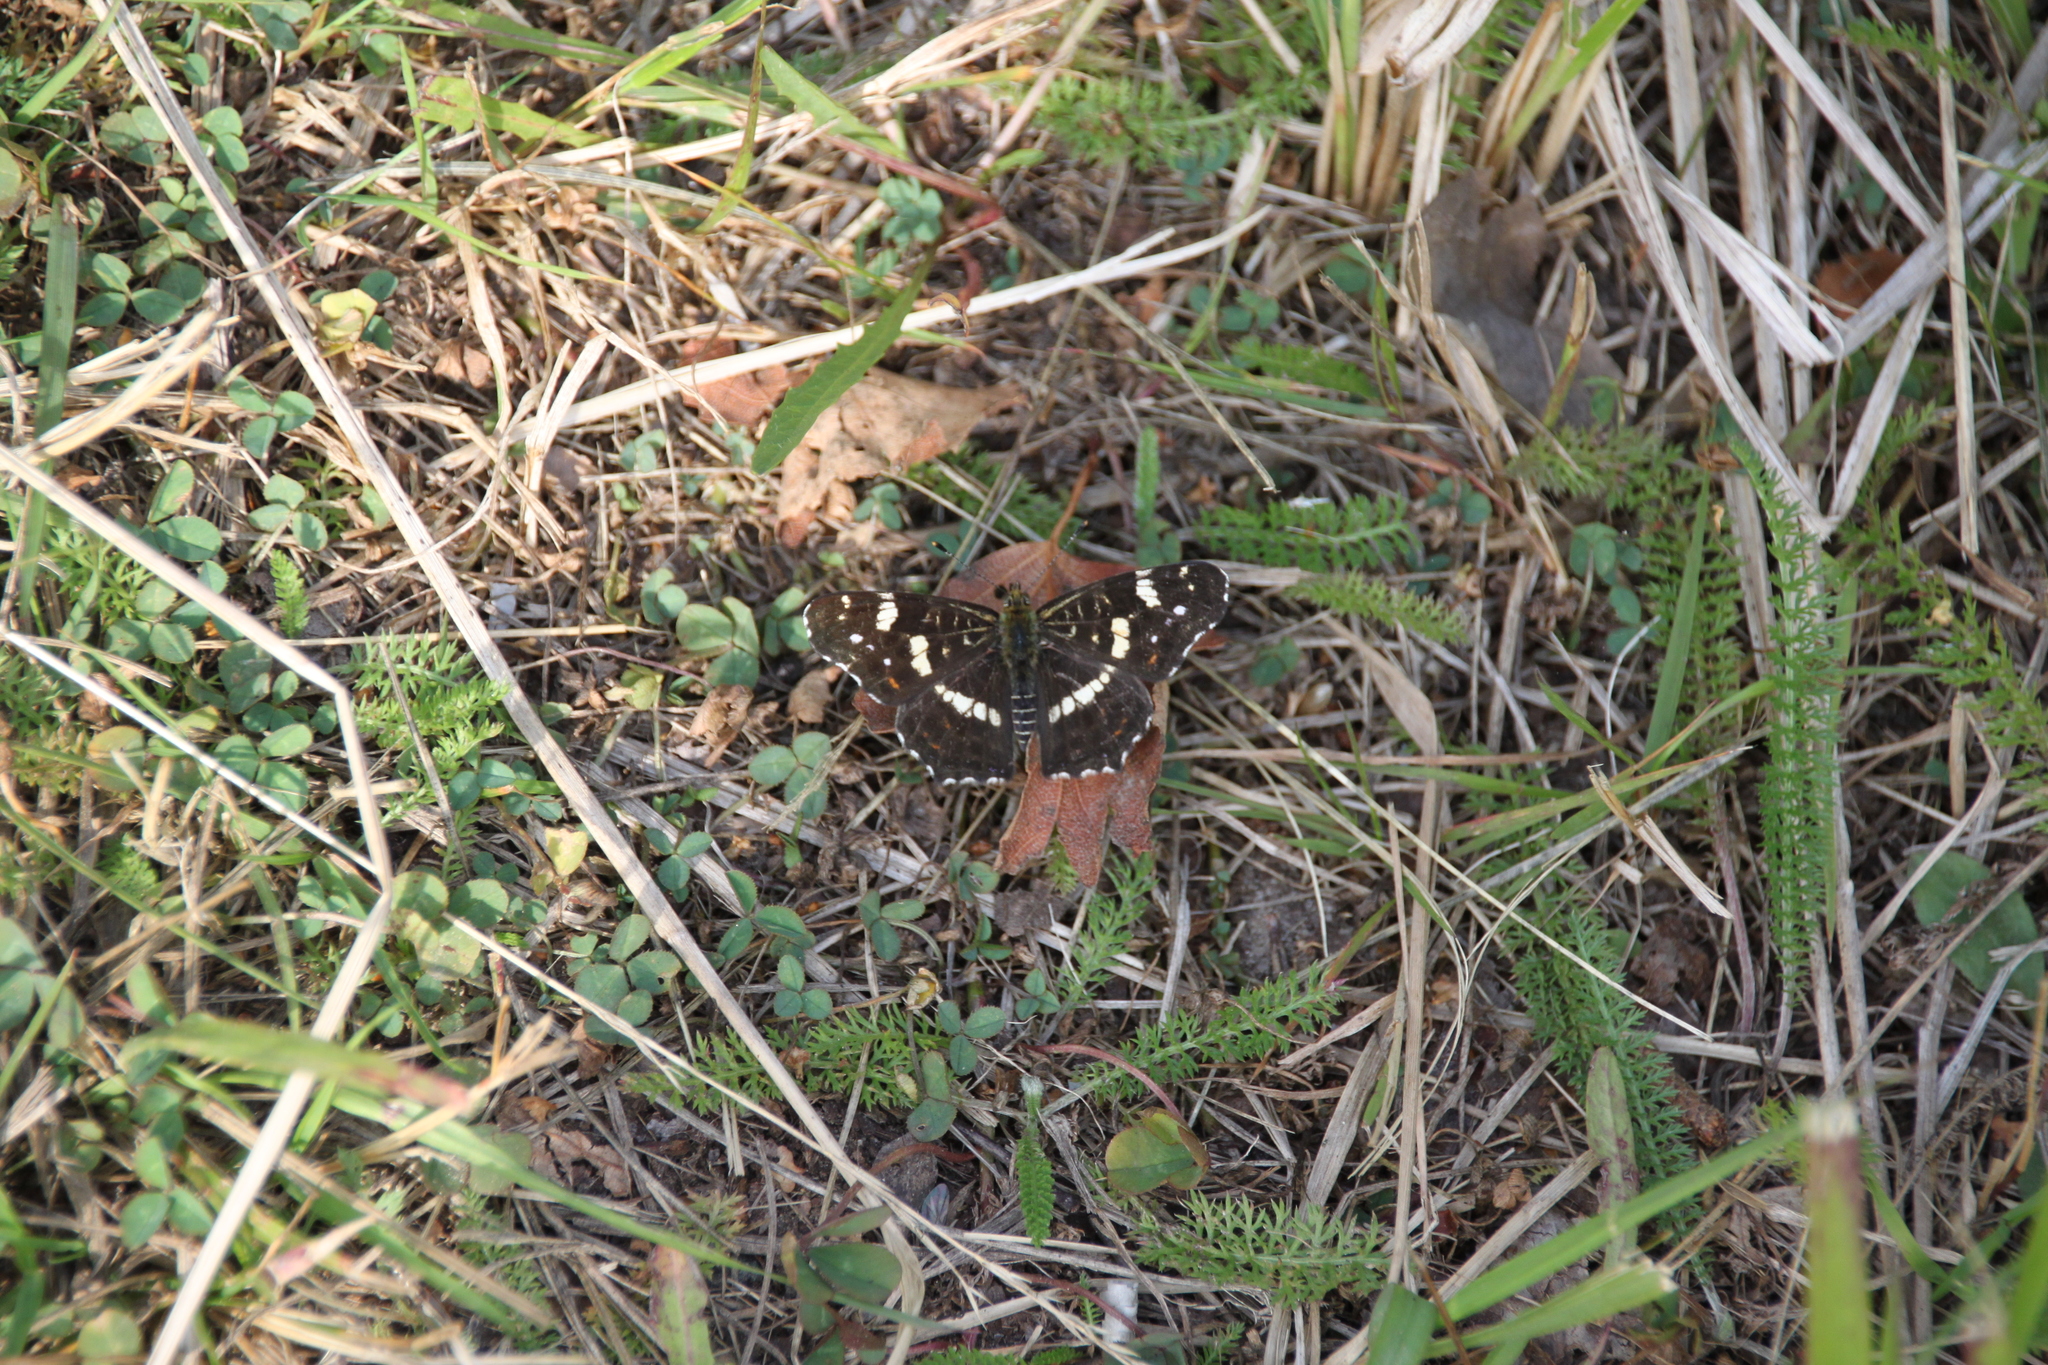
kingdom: Animalia
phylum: Arthropoda
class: Insecta
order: Lepidoptera
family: Nymphalidae
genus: Araschnia
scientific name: Araschnia levana
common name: Map butterfly
